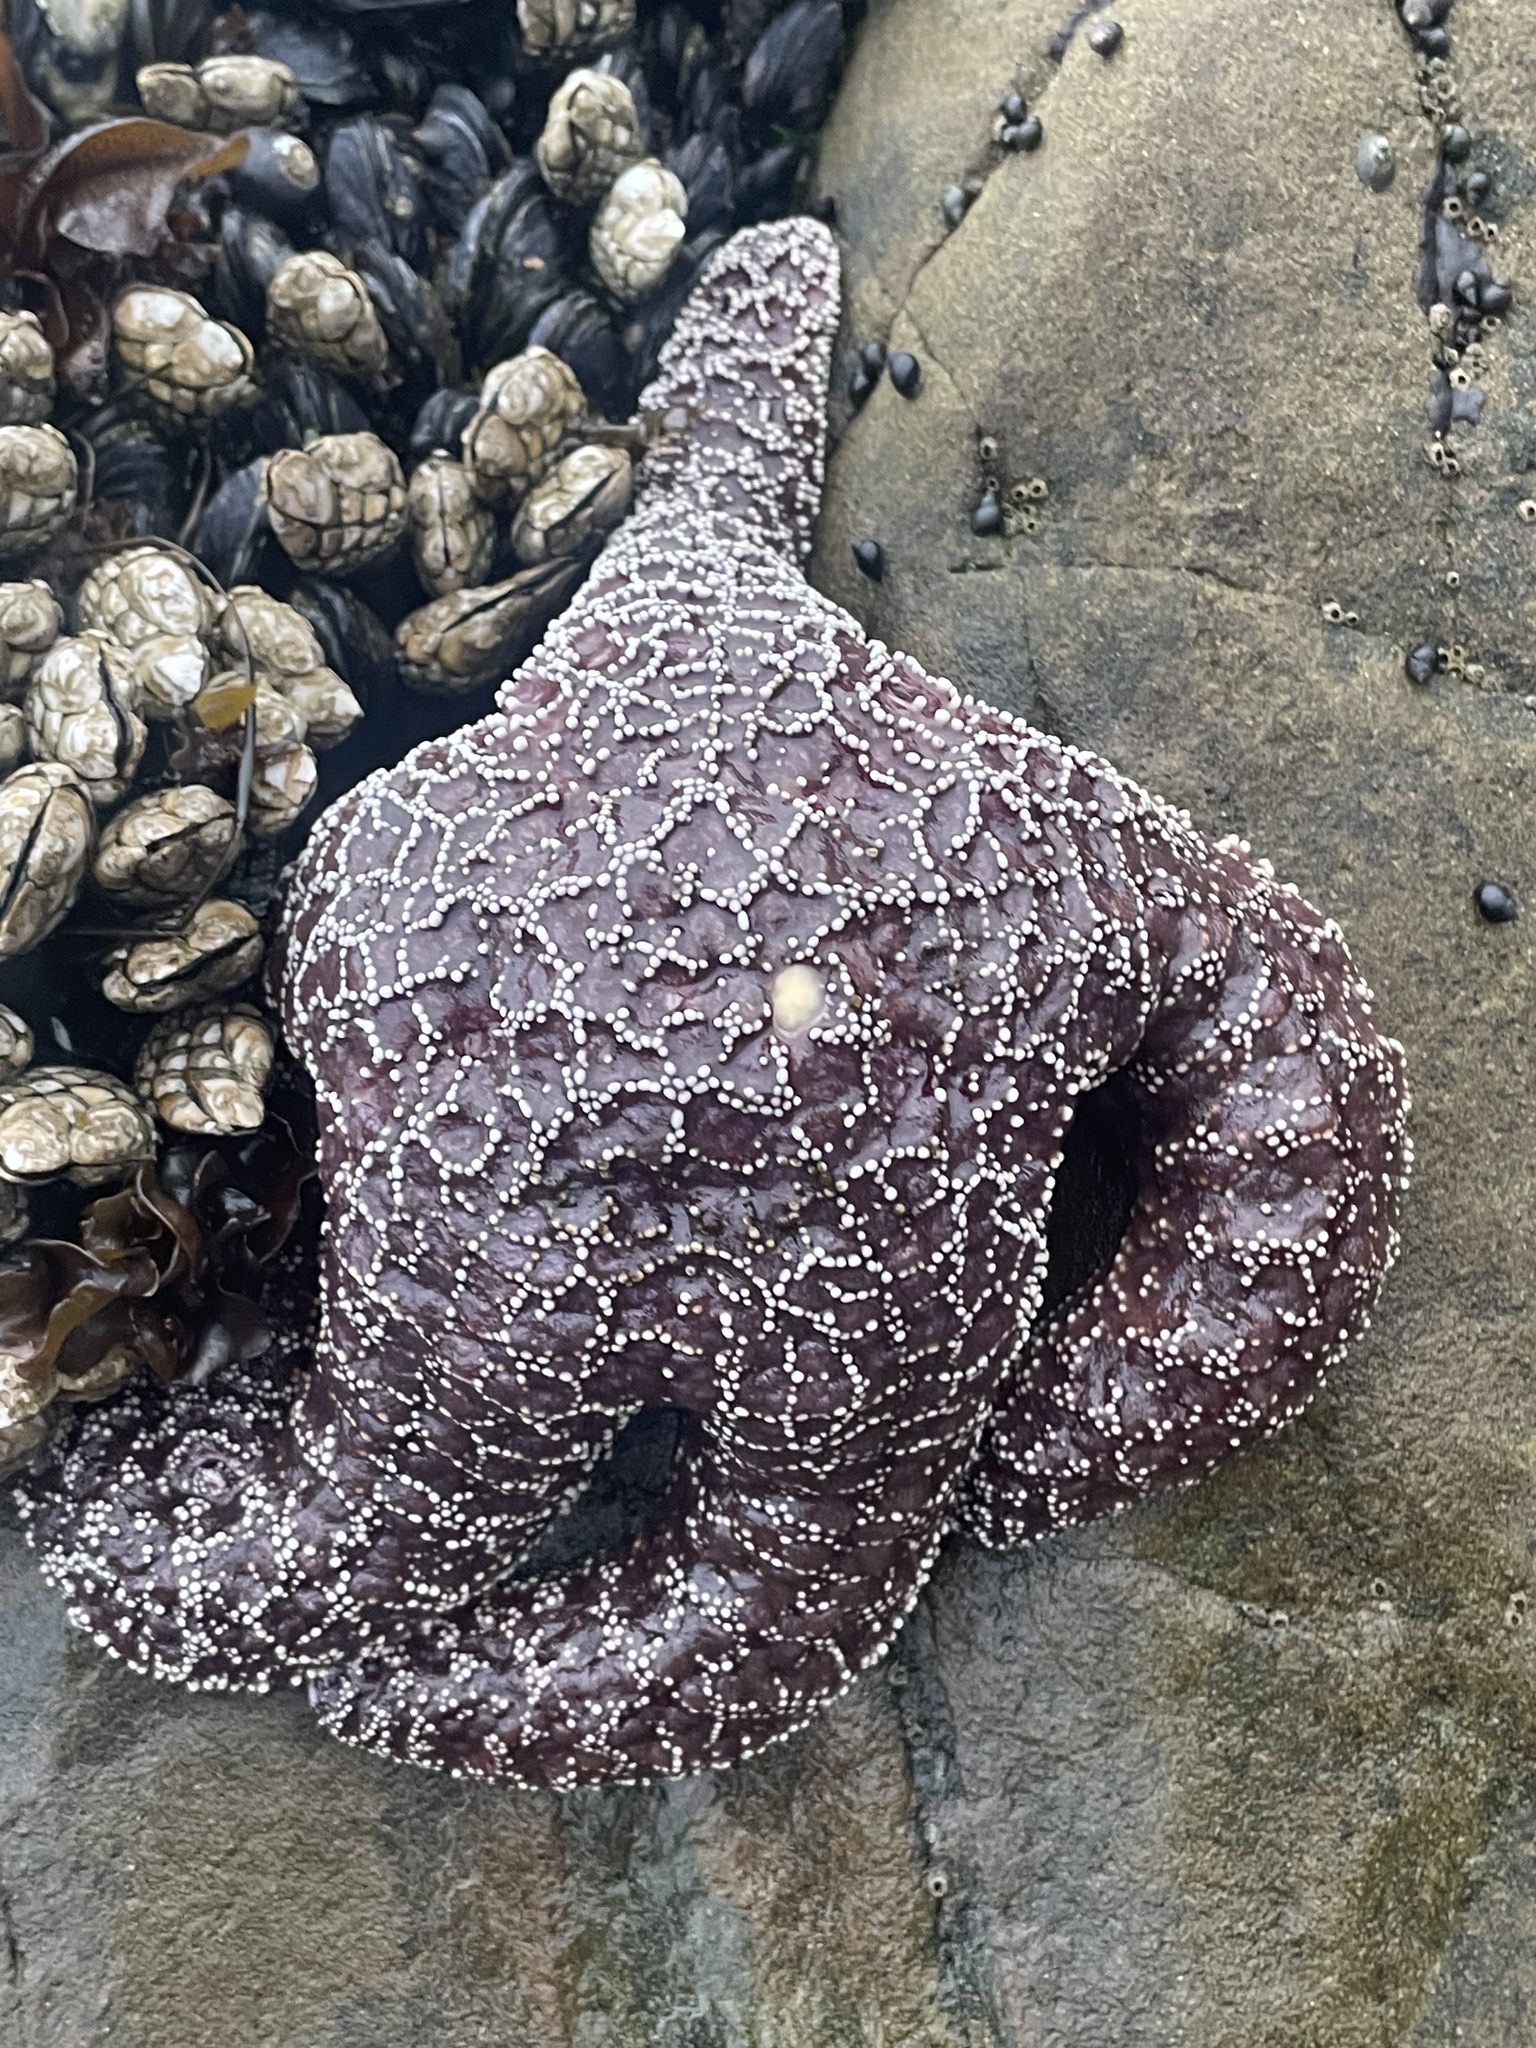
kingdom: Animalia
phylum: Echinodermata
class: Asteroidea
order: Forcipulatida
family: Asteriidae
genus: Pisaster
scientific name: Pisaster ochraceus
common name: Ochre stars
